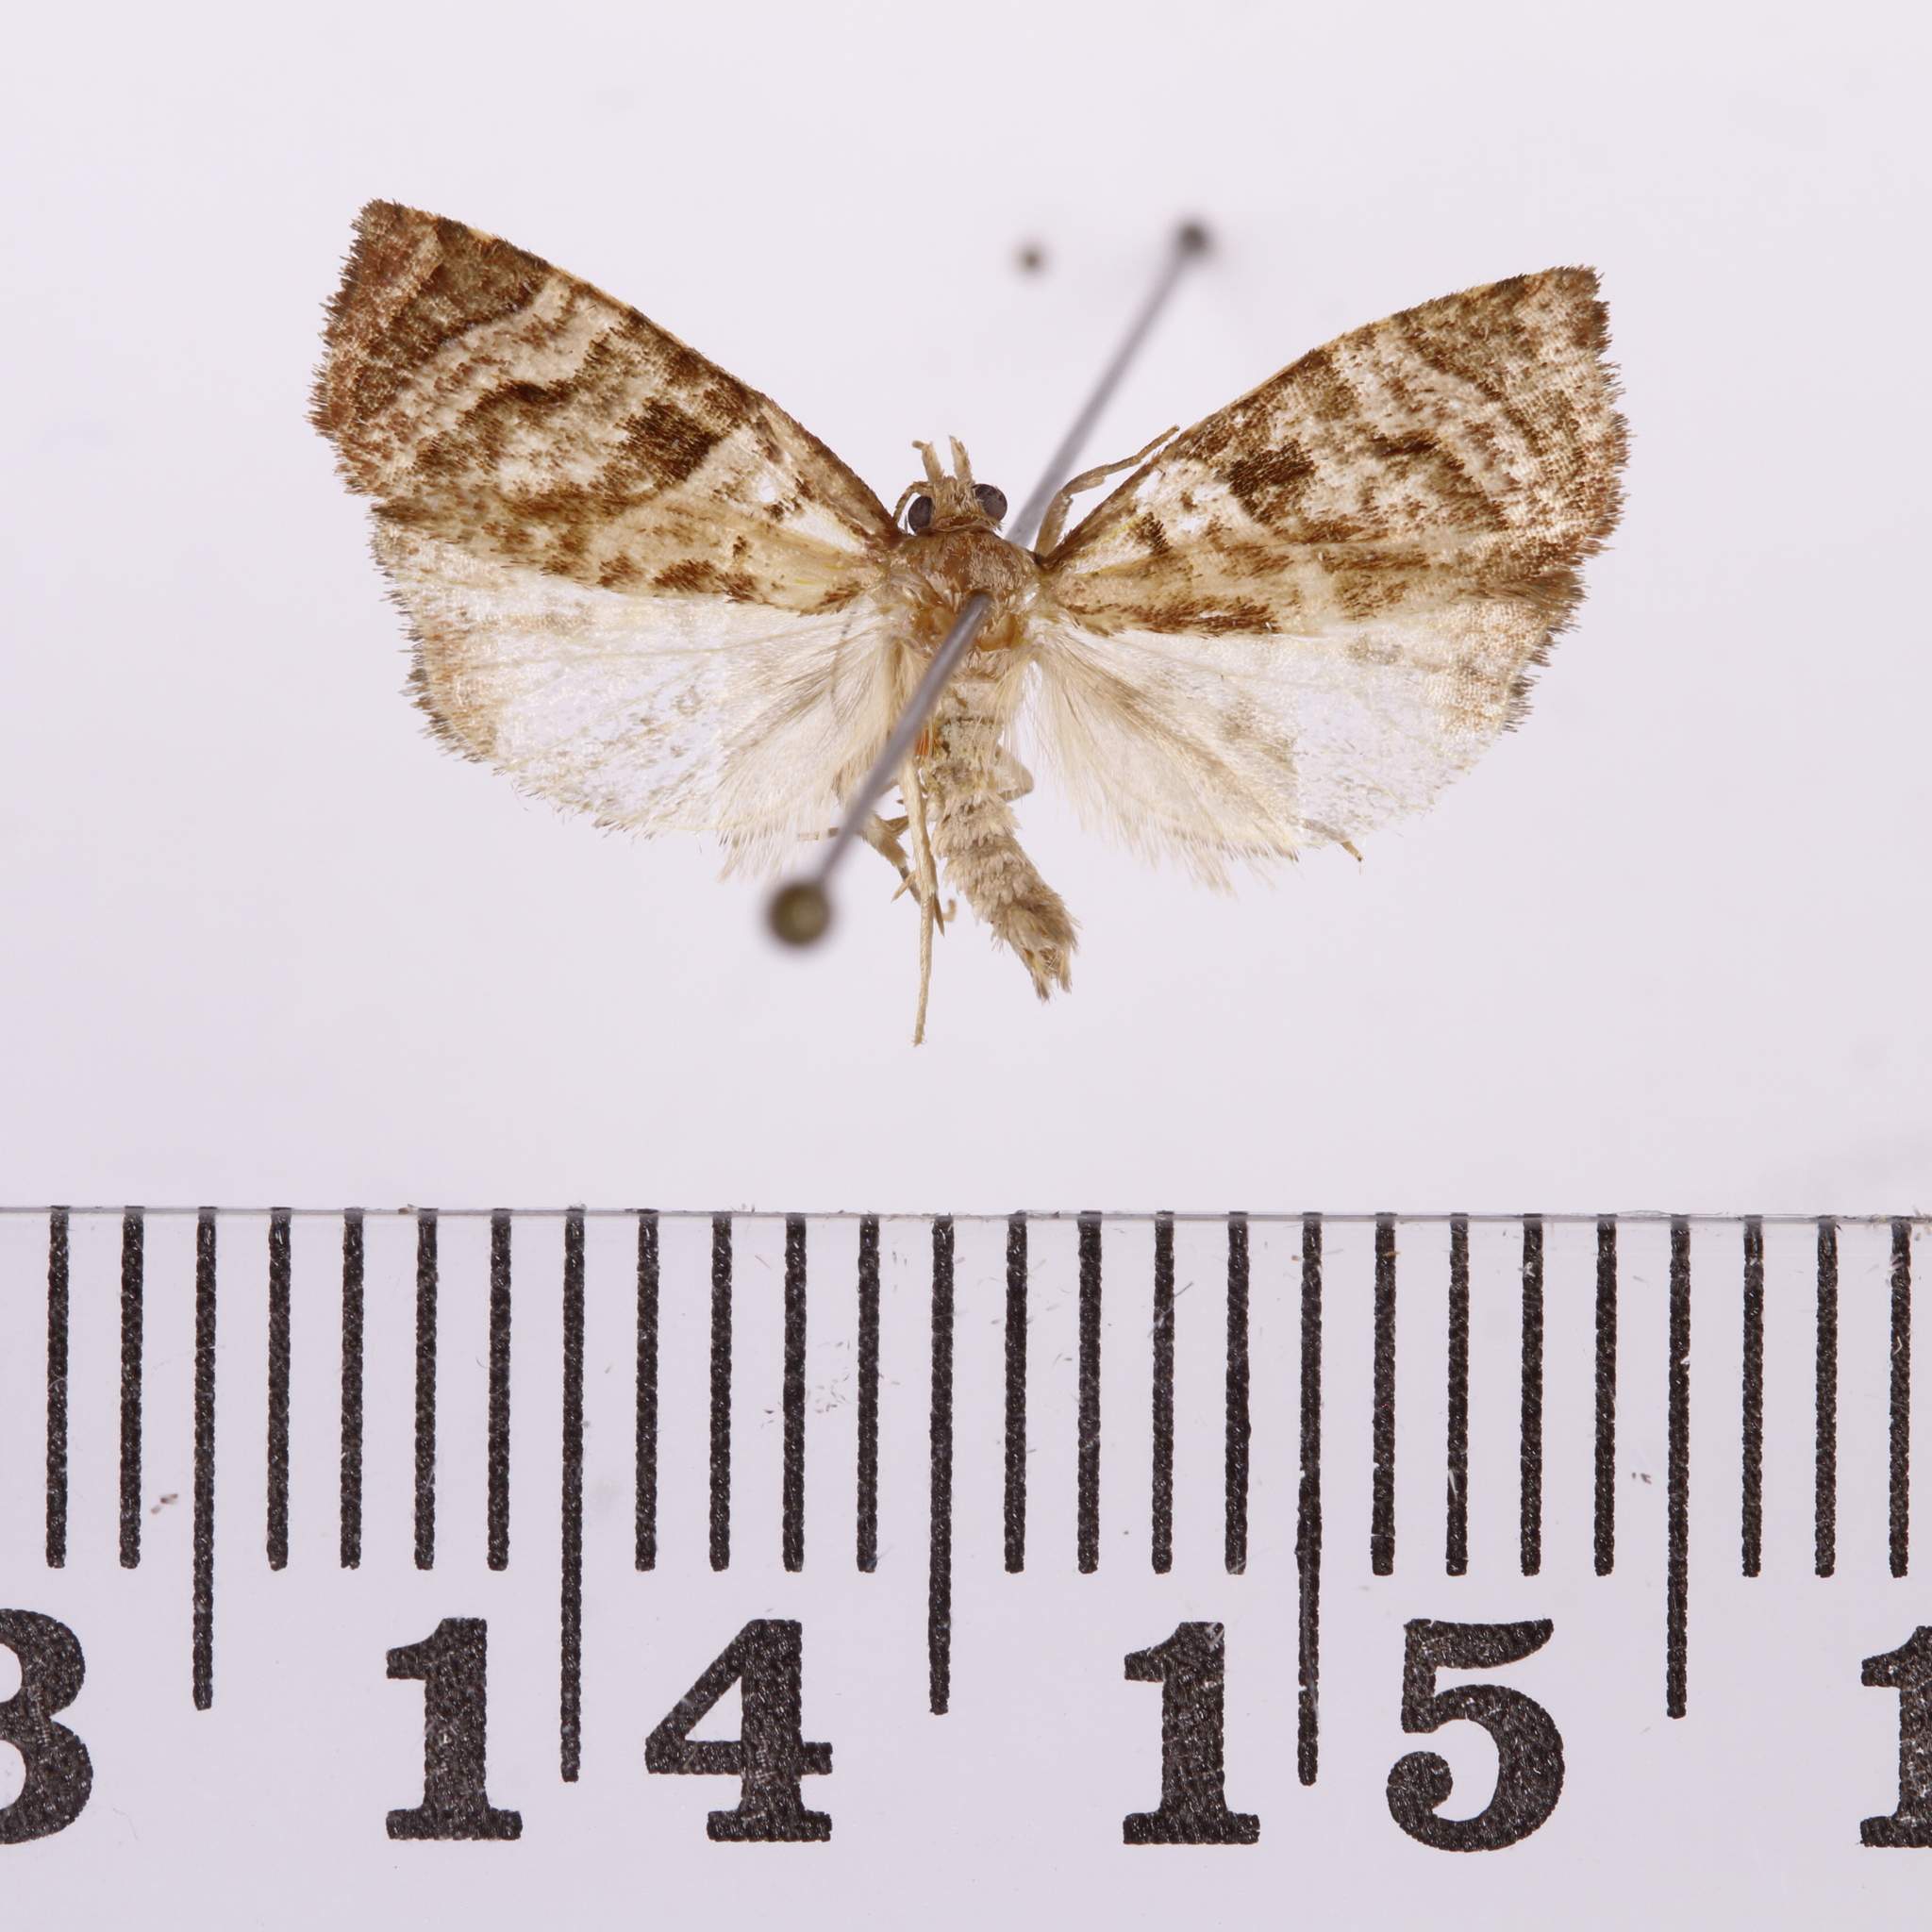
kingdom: Animalia
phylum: Arthropoda
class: Insecta
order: Lepidoptera
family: Tortricidae
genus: Apoctena
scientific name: Apoctena tigris
